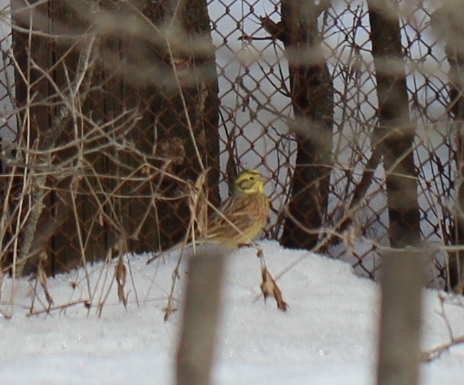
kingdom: Animalia
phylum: Chordata
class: Aves
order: Passeriformes
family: Emberizidae
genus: Emberiza
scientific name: Emberiza citrinella
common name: Yellowhammer
